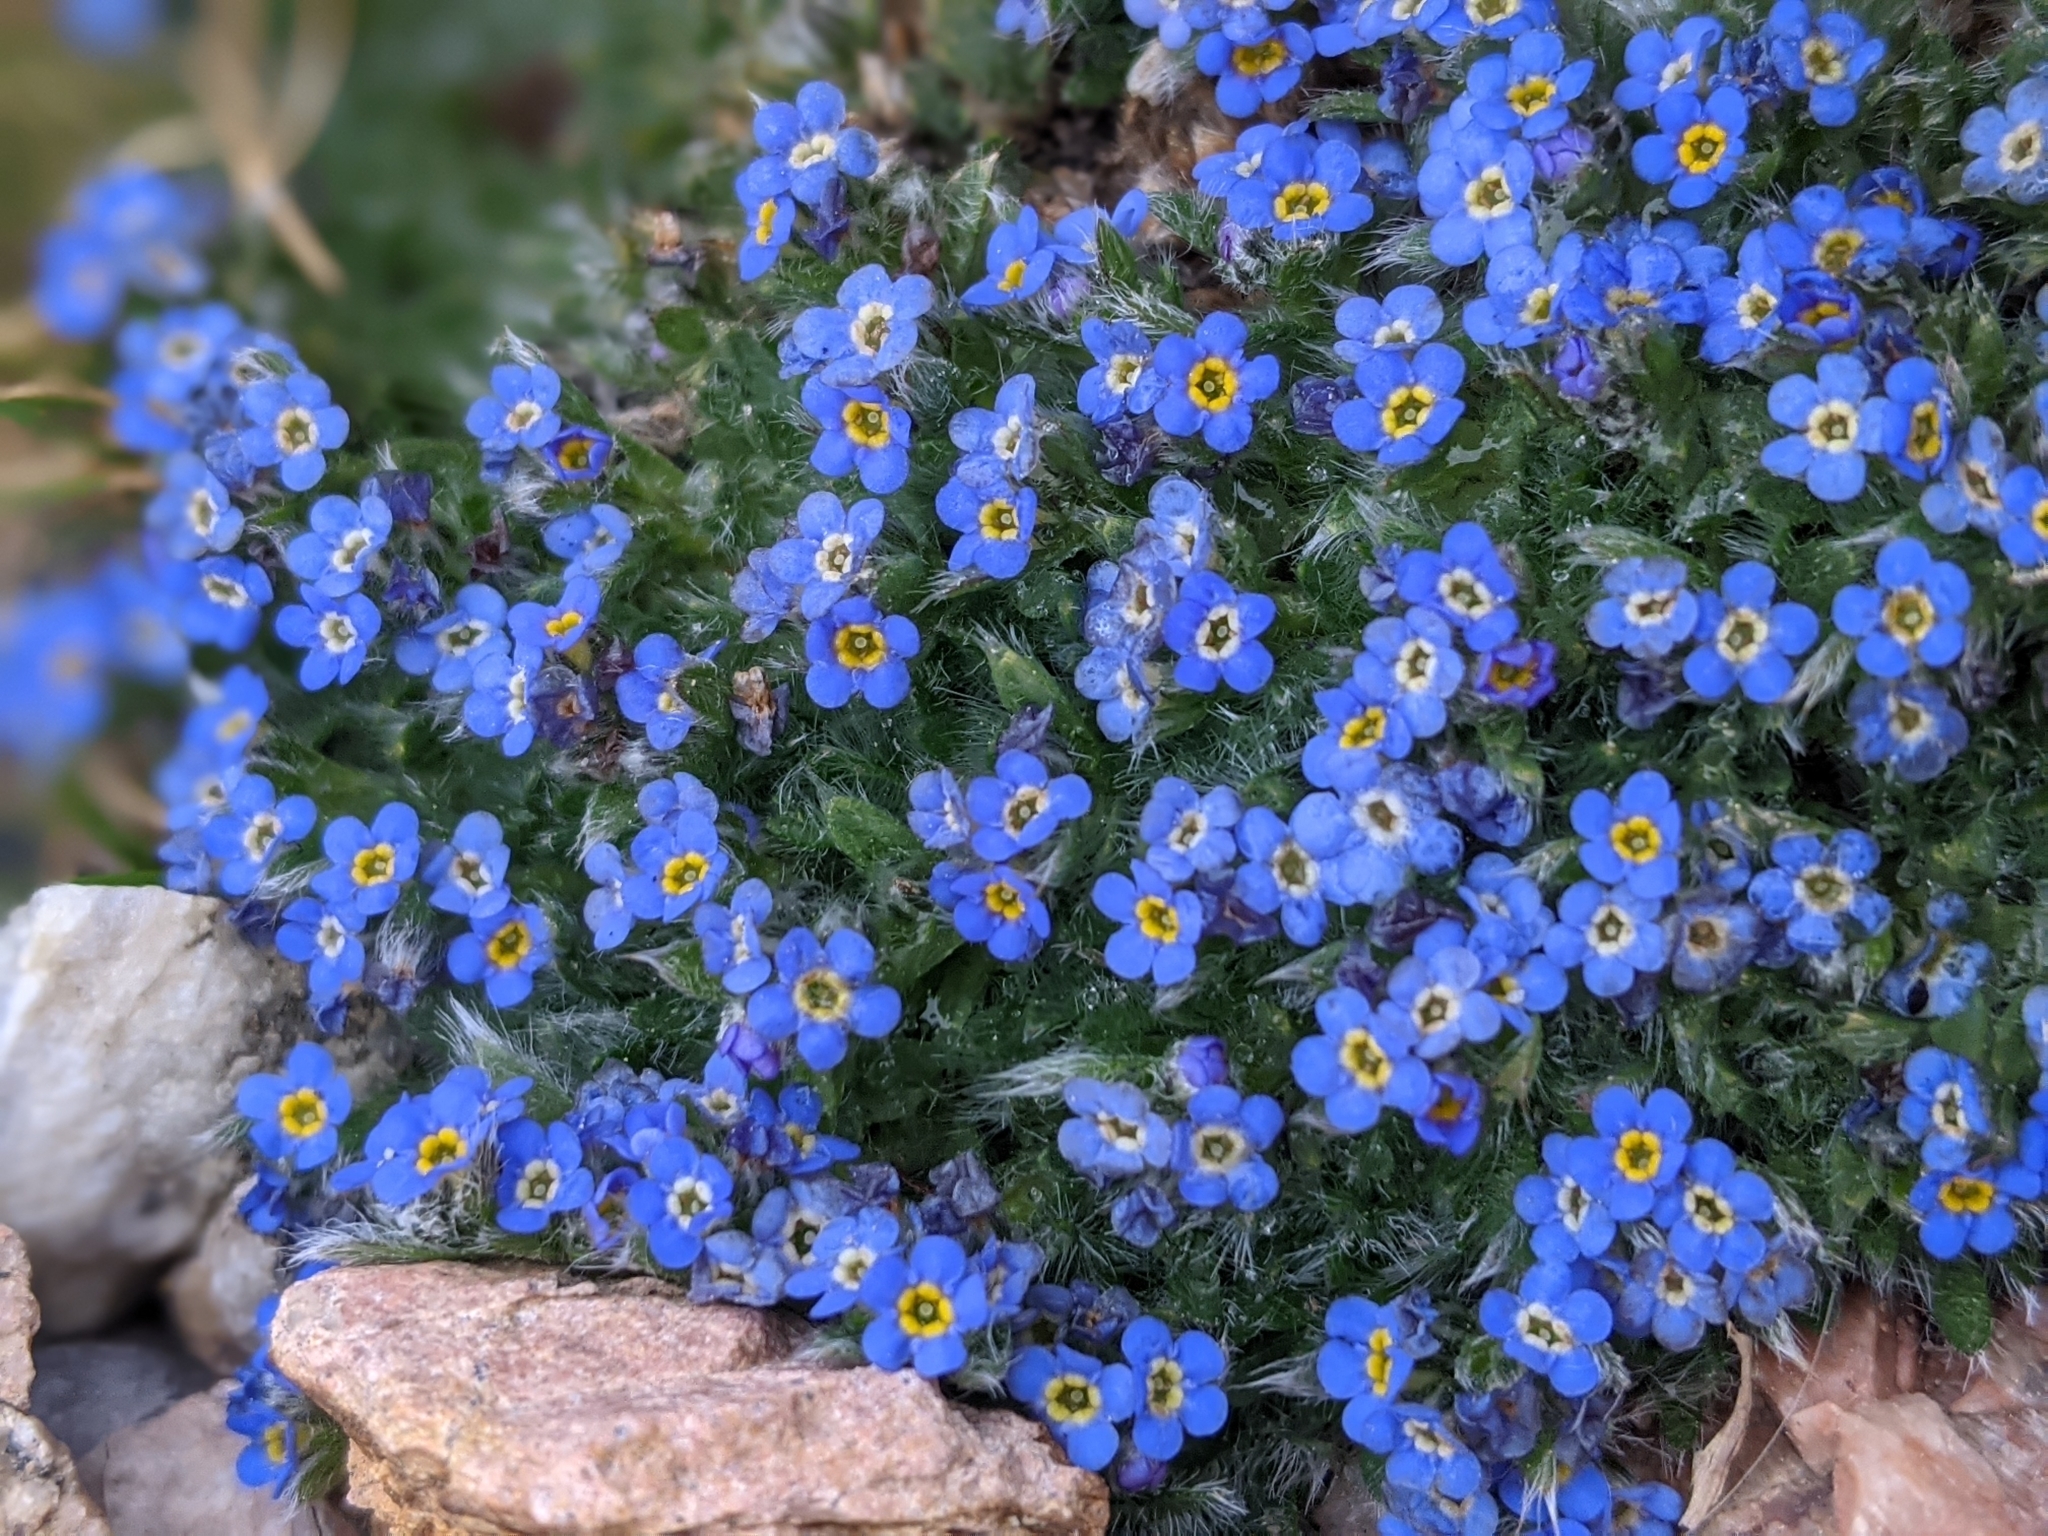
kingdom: Plantae
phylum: Tracheophyta
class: Magnoliopsida
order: Boraginales
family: Boraginaceae
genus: Eritrichium
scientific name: Eritrichium argenteum
